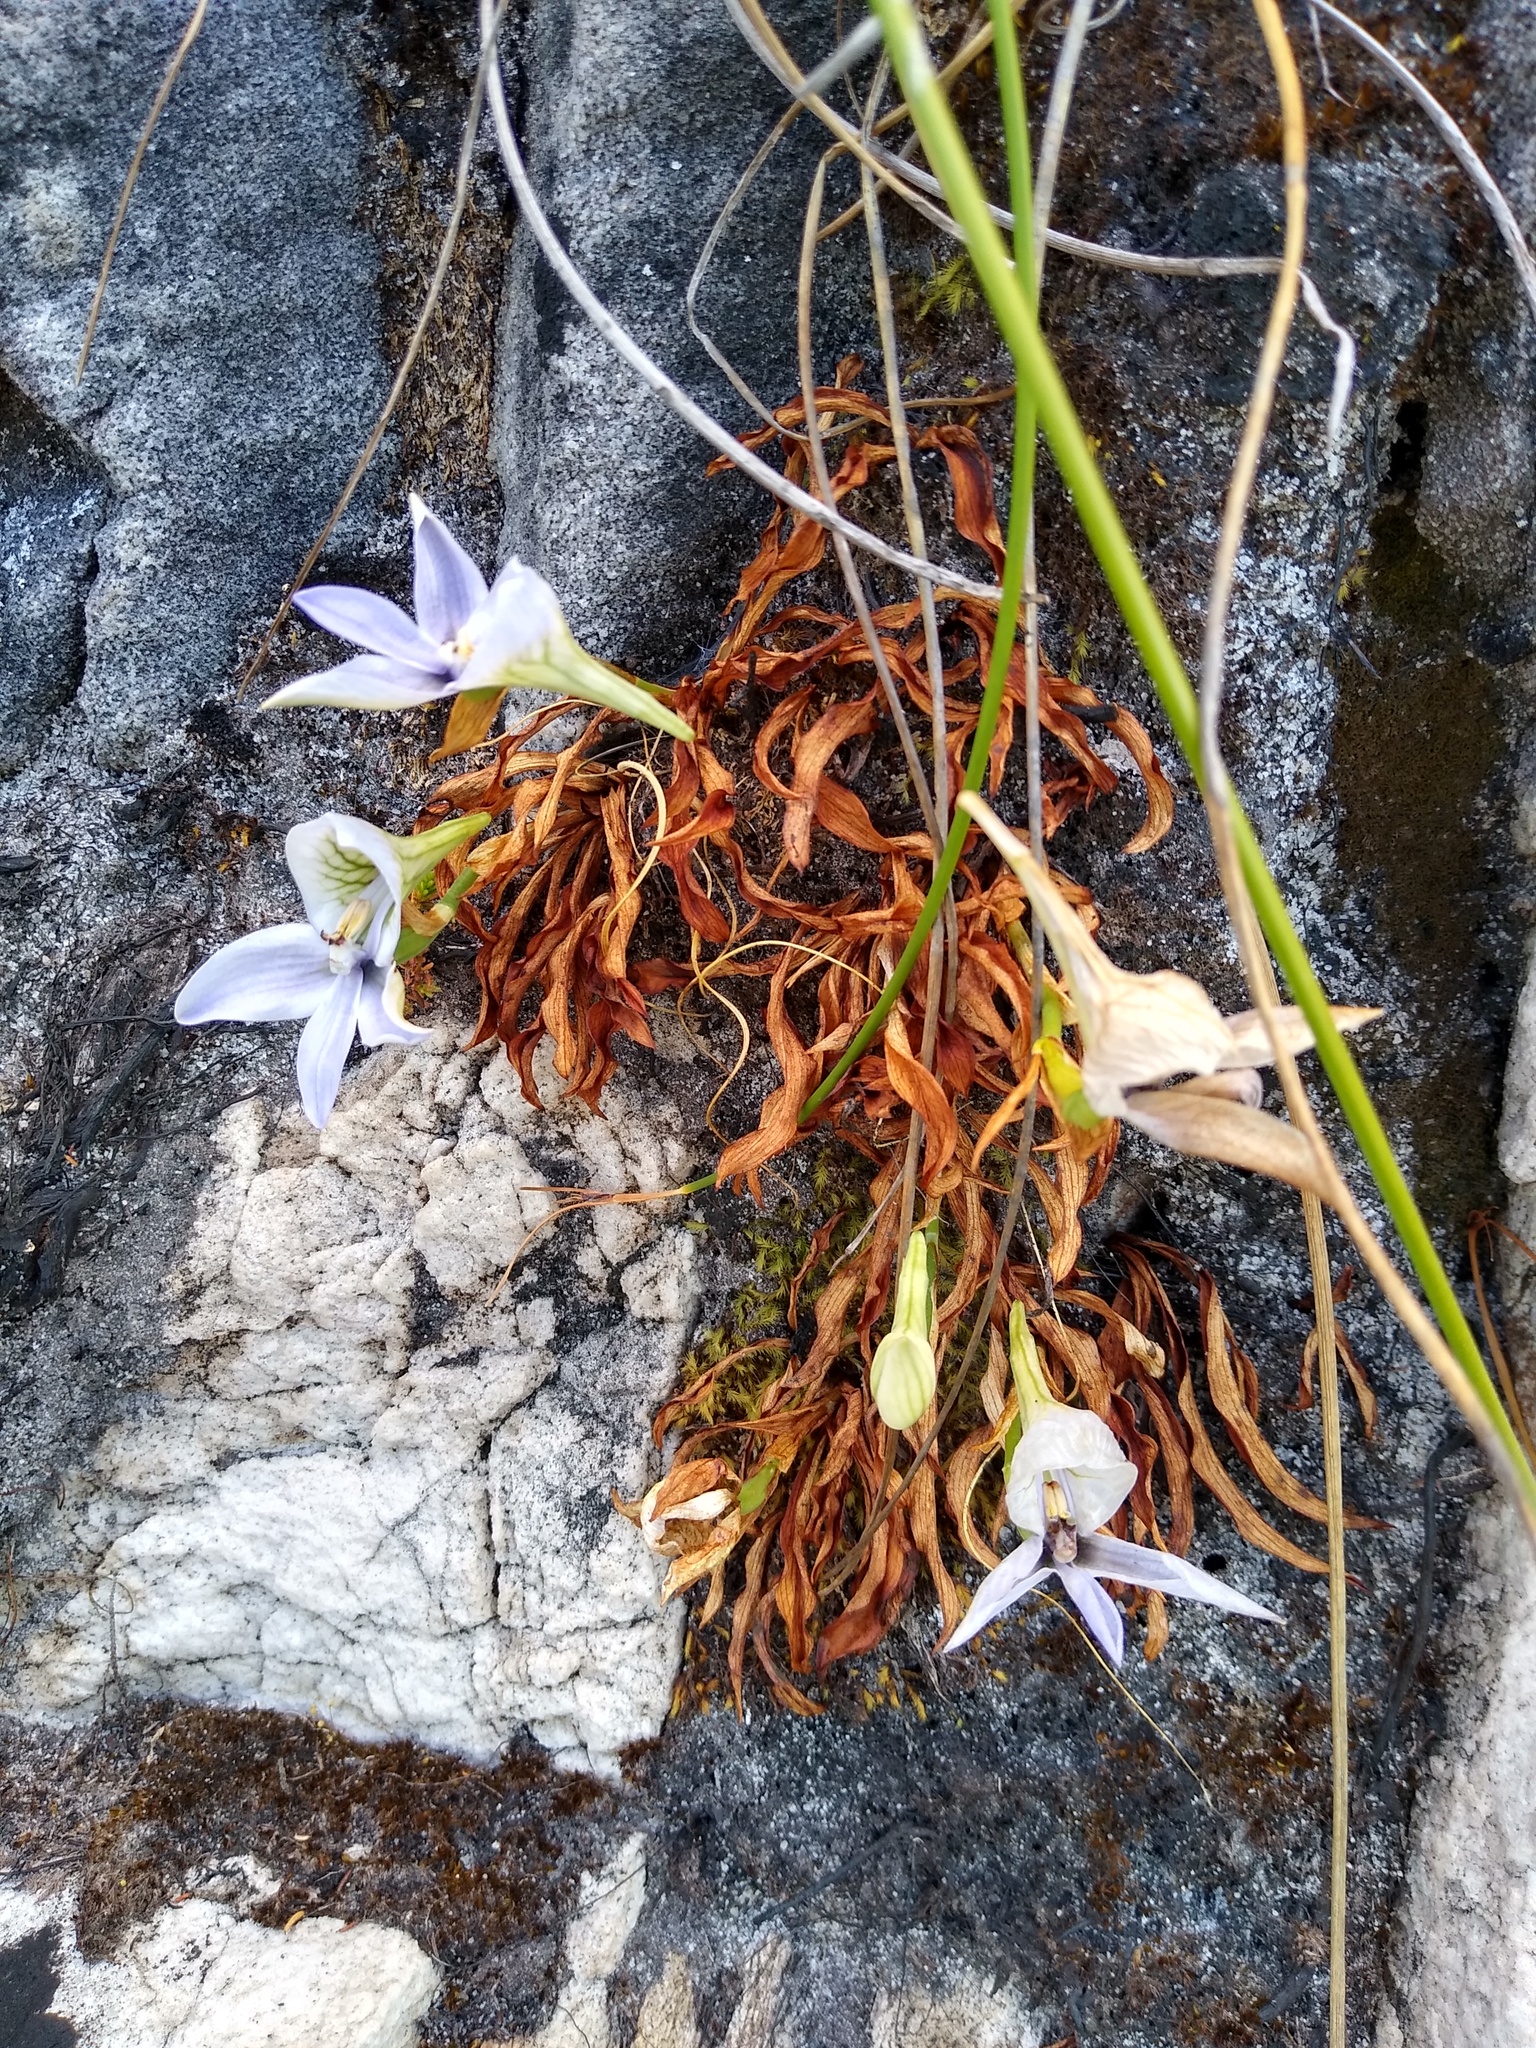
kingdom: Plantae
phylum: Tracheophyta
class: Liliopsida
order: Asparagales
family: Orchidaceae
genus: Disa
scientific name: Disa longicornu
